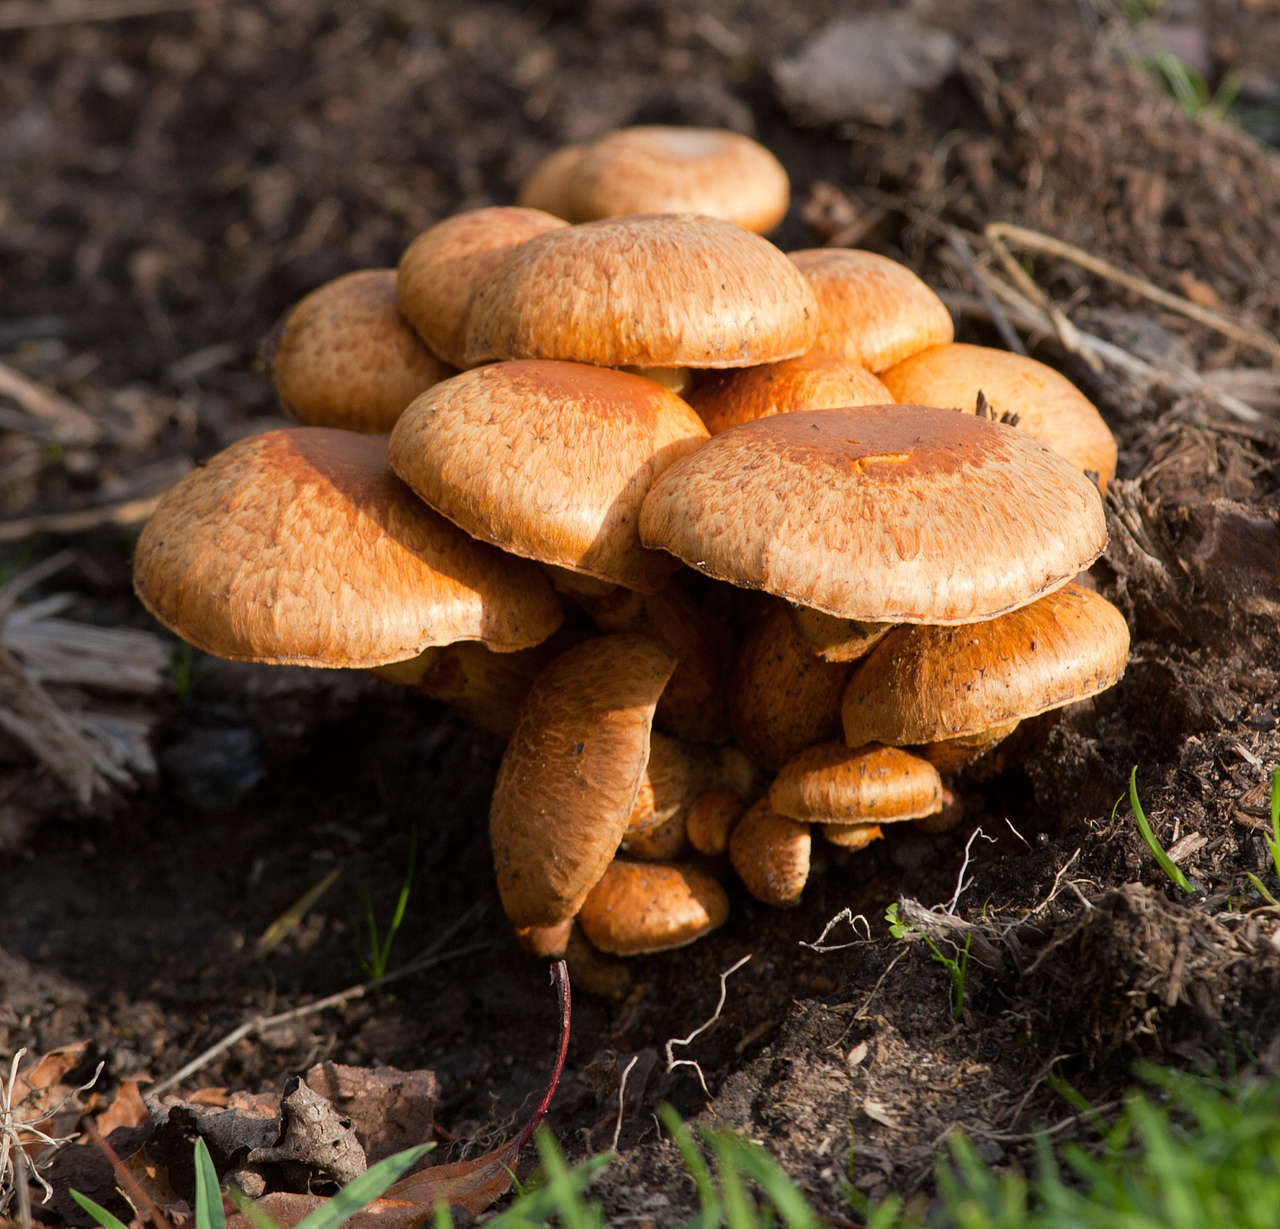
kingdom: Fungi
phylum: Basidiomycota
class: Agaricomycetes
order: Agaricales
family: Hymenogastraceae
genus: Gymnopilus
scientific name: Gymnopilus junonius
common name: Spectacular rustgill
